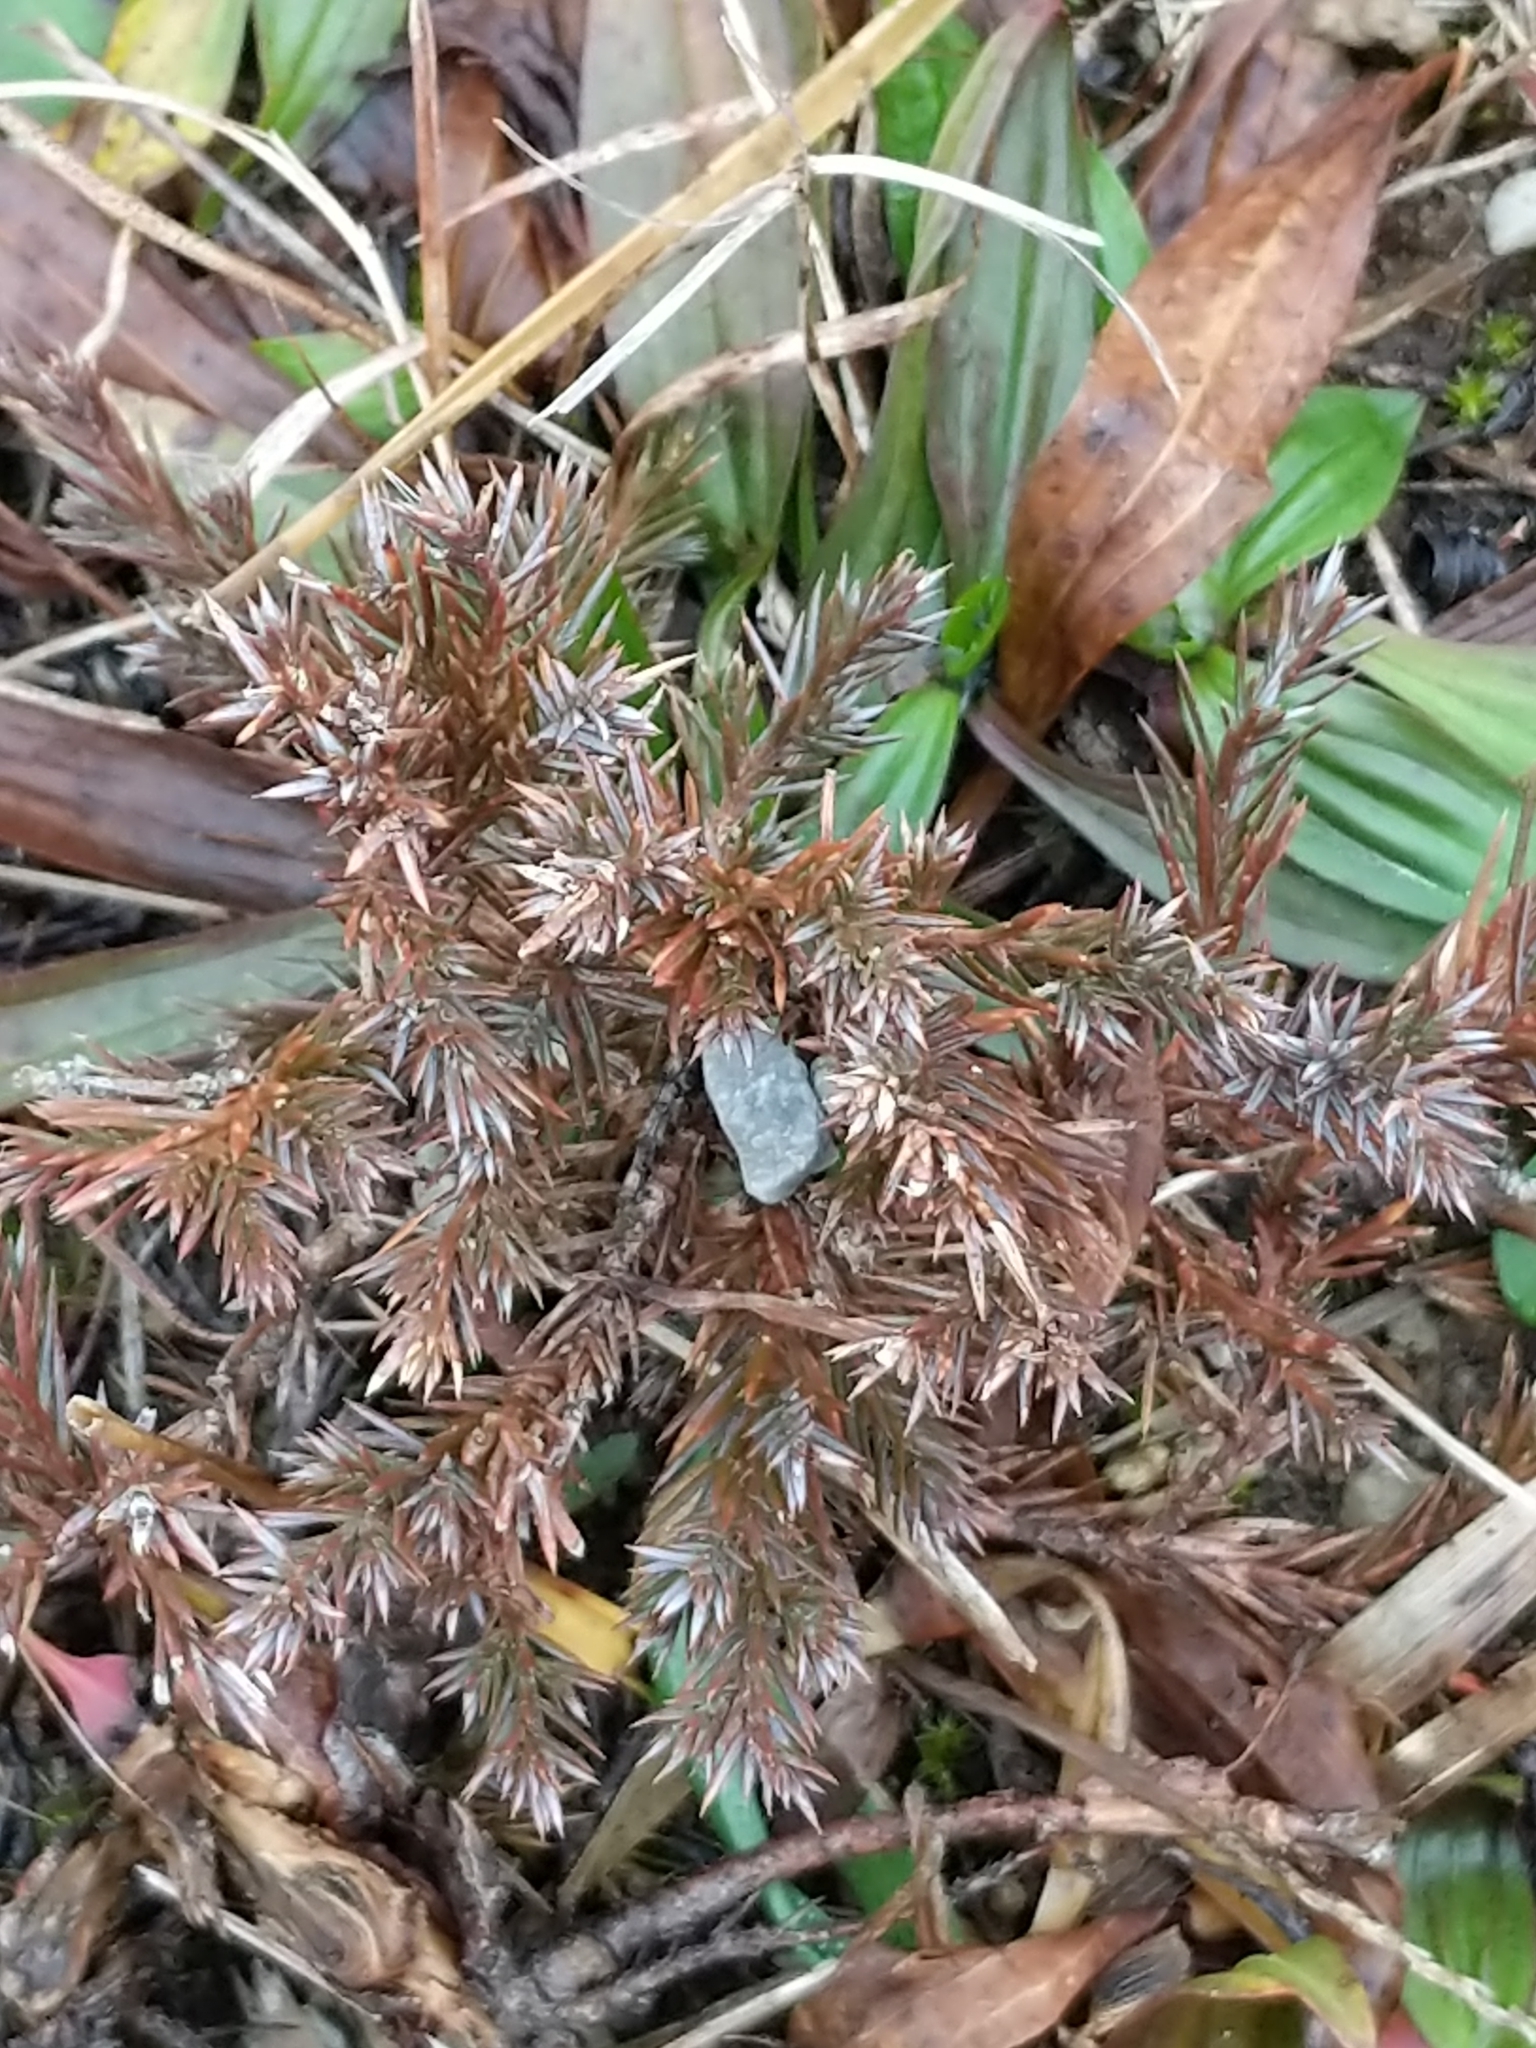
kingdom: Plantae
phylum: Tracheophyta
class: Pinopsida
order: Pinales
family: Cupressaceae
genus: Juniperus
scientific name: Juniperus virginiana
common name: Red juniper
